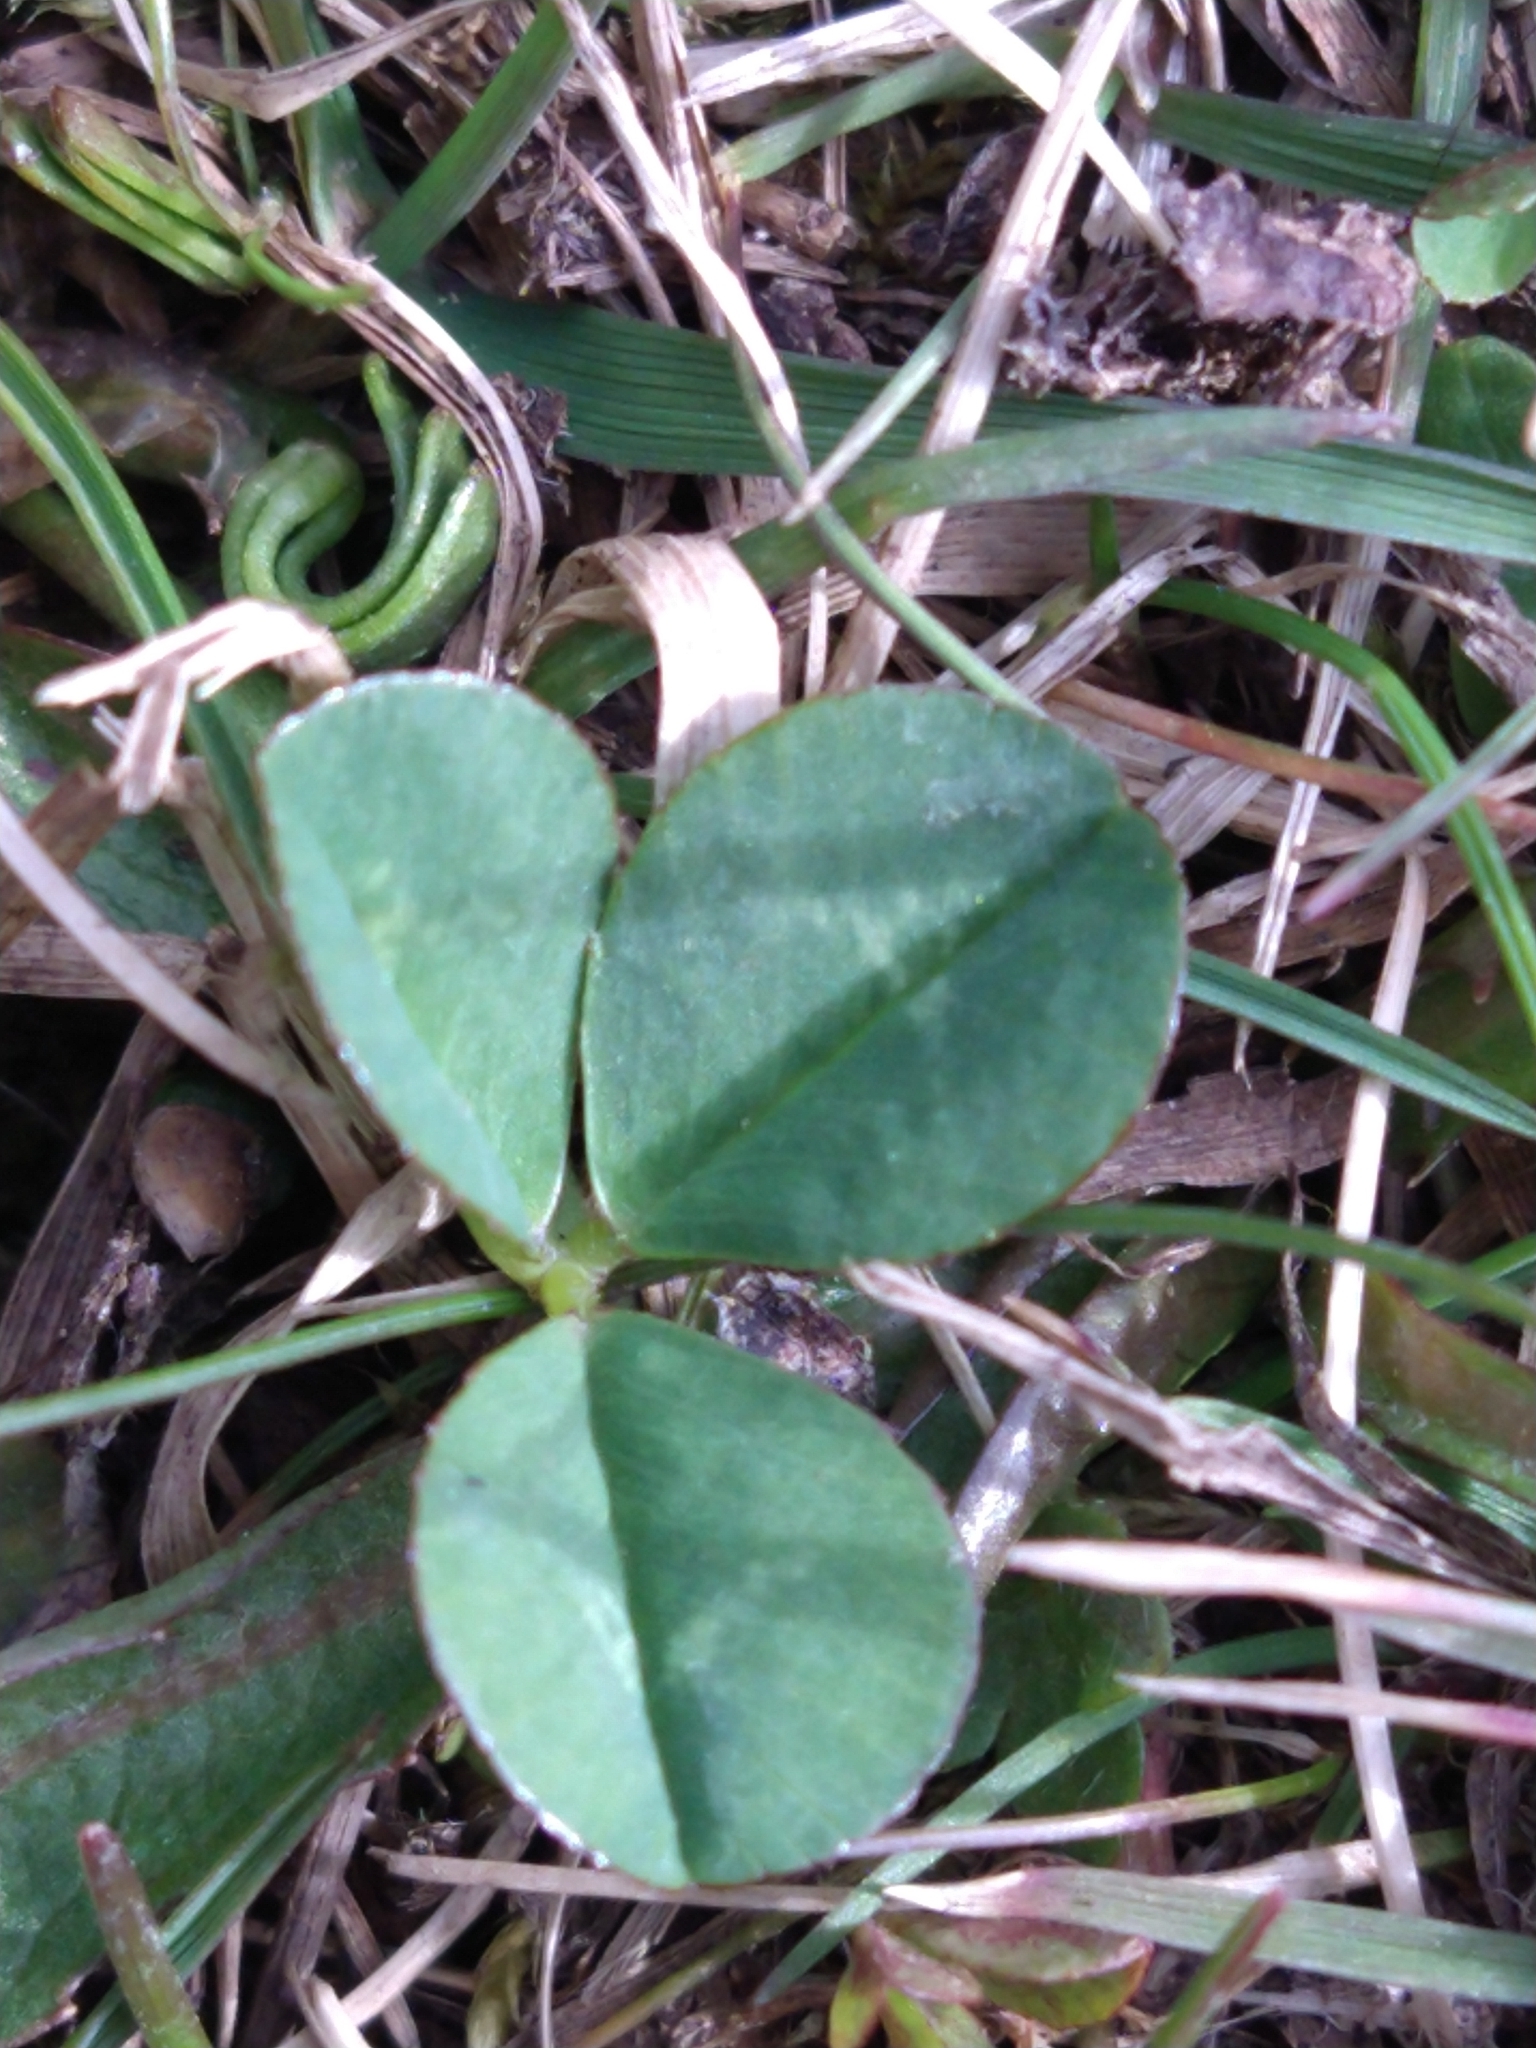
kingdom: Plantae
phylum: Tracheophyta
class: Magnoliopsida
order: Fabales
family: Fabaceae
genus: Trifolium
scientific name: Trifolium repens
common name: White clover
